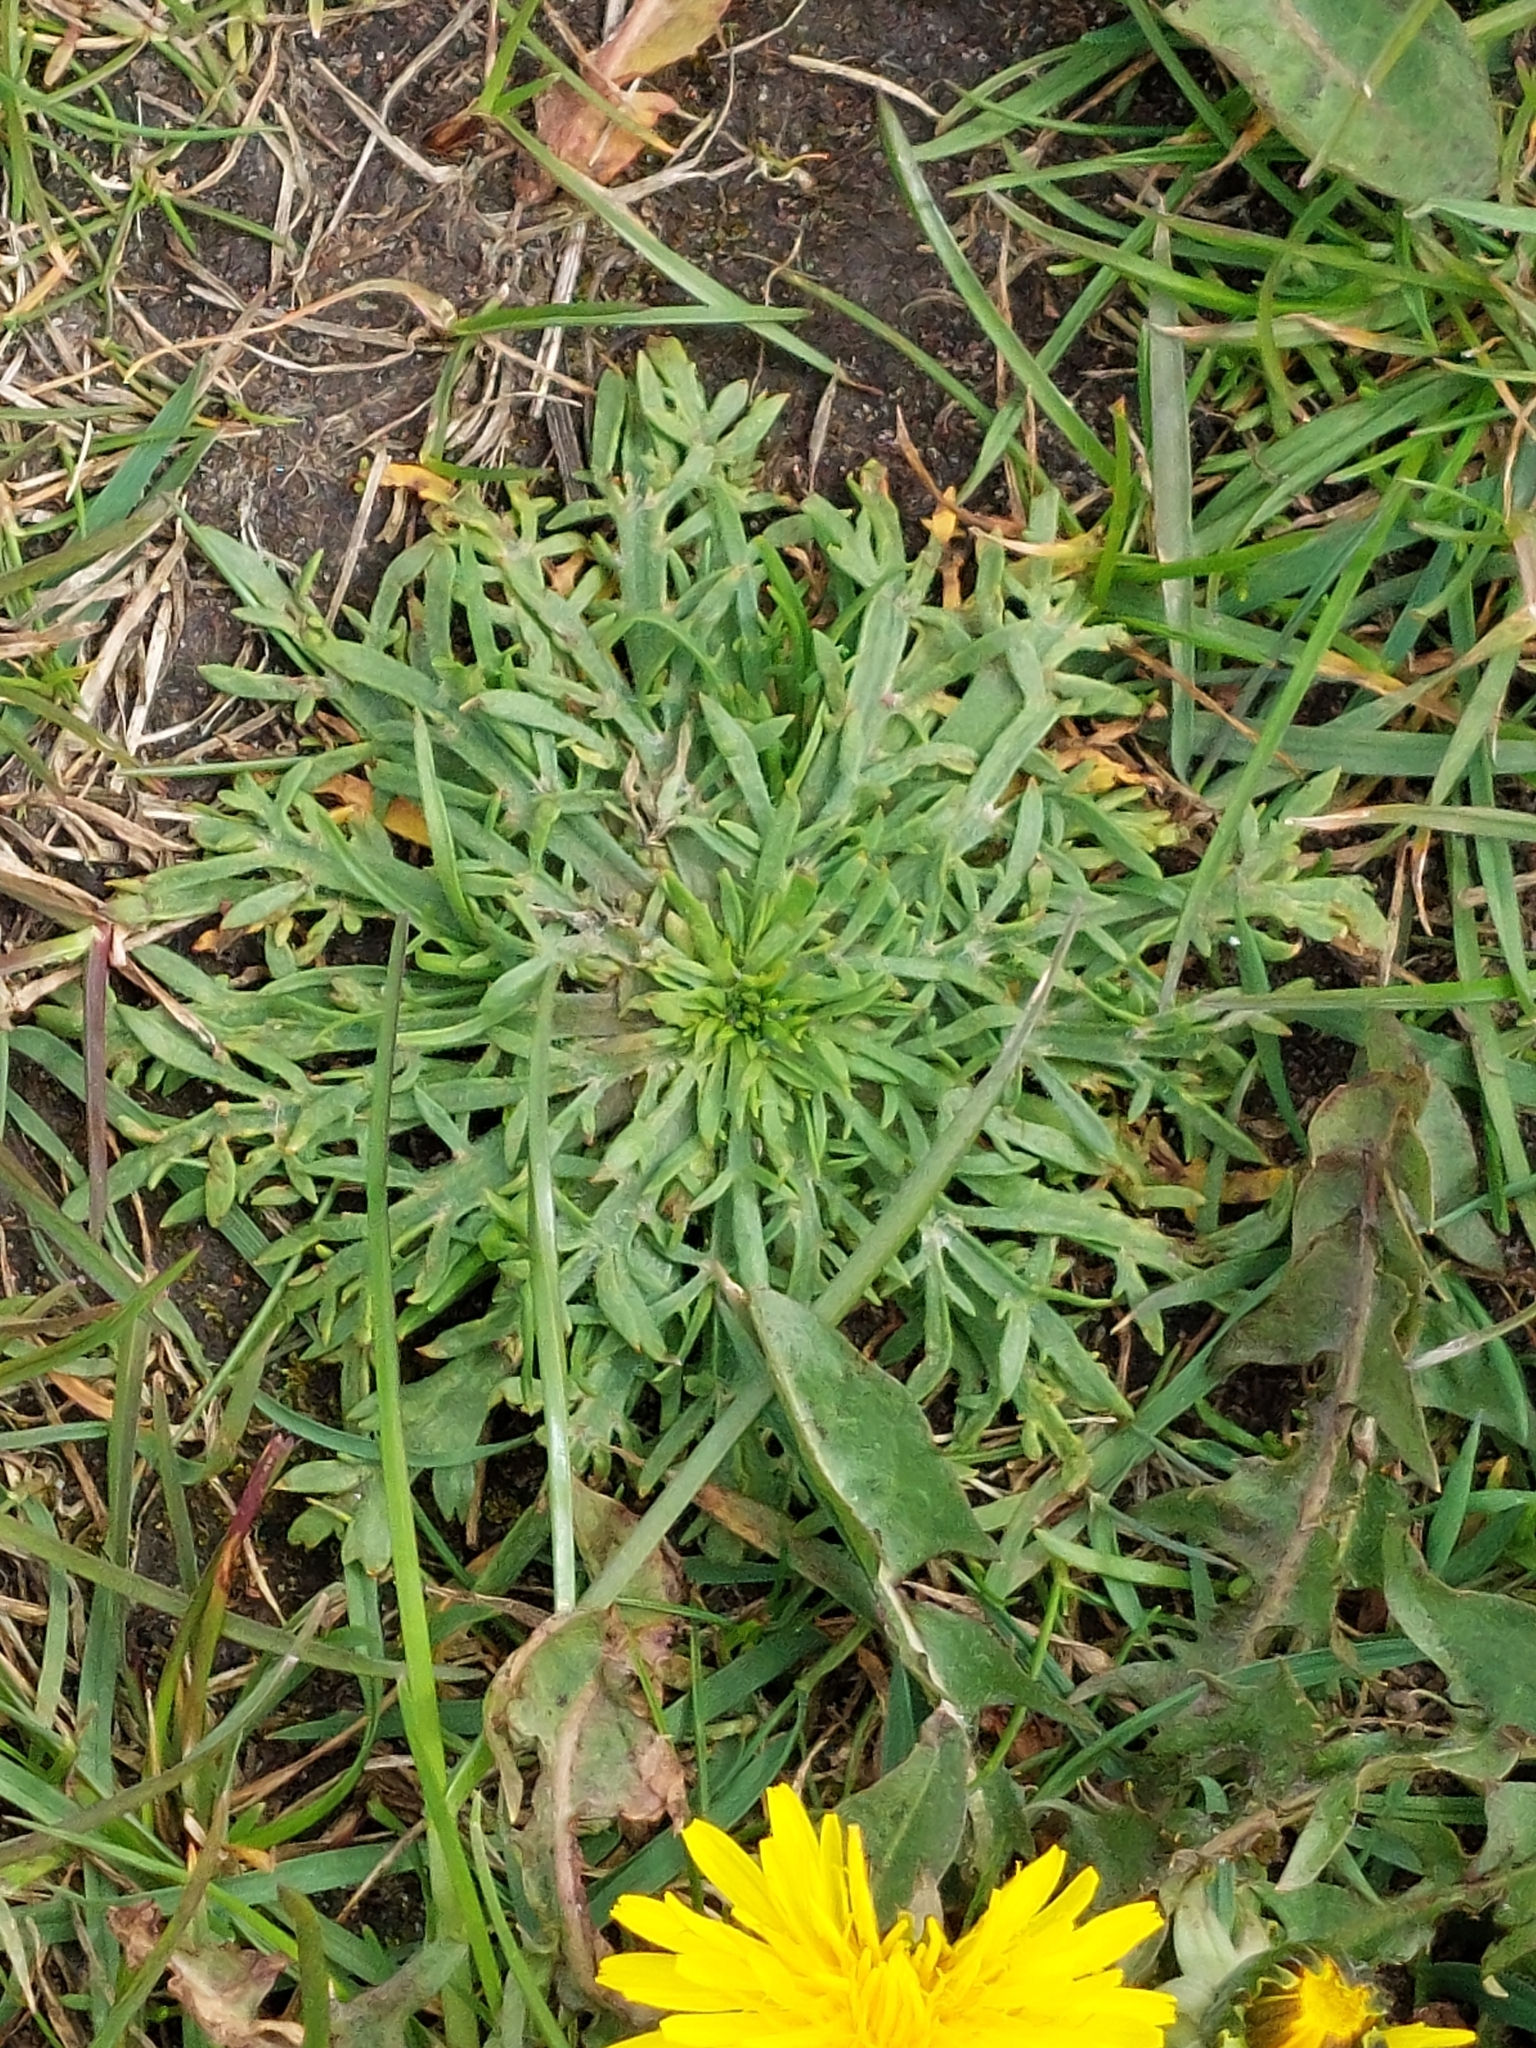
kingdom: Plantae
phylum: Tracheophyta
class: Magnoliopsida
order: Lamiales
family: Plantaginaceae
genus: Plantago
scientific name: Plantago coronopus
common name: Buck's-horn plantain
